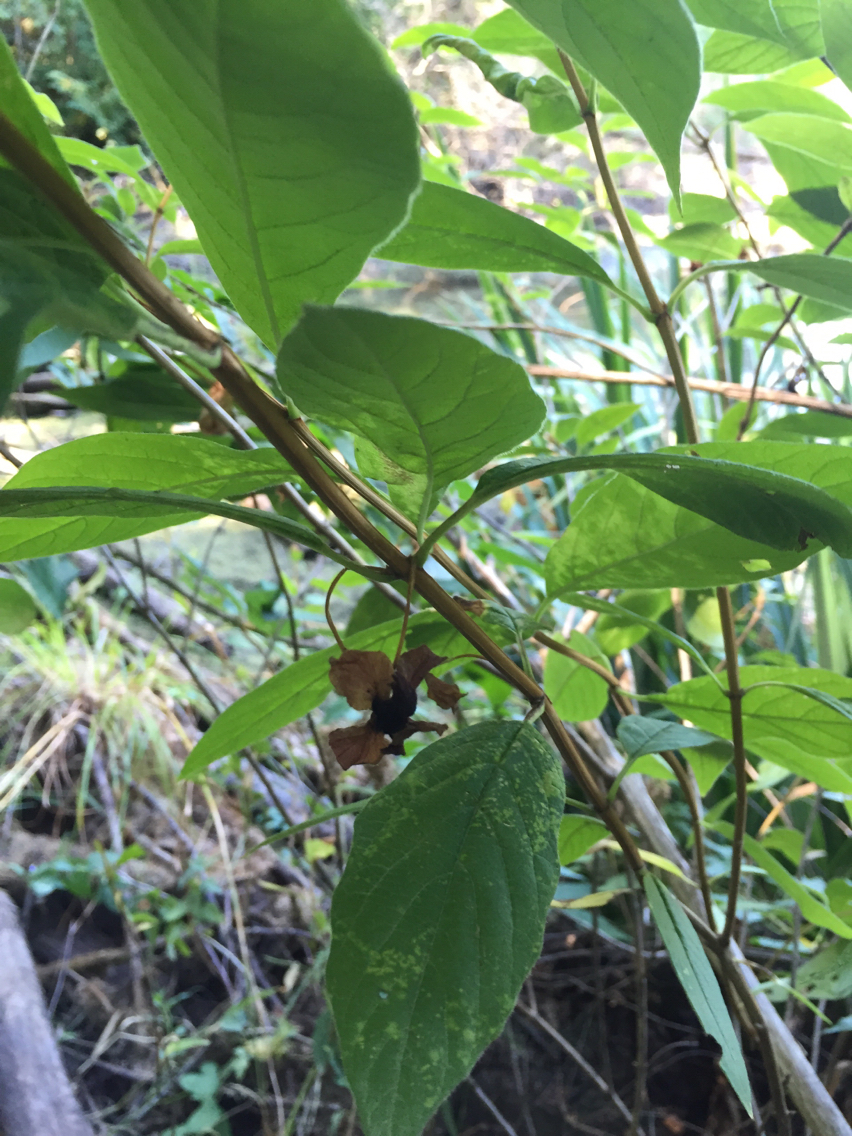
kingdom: Plantae
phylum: Tracheophyta
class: Magnoliopsida
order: Dipsacales
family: Caprifoliaceae
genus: Lonicera
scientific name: Lonicera involucrata
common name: Californian honeysuckle
